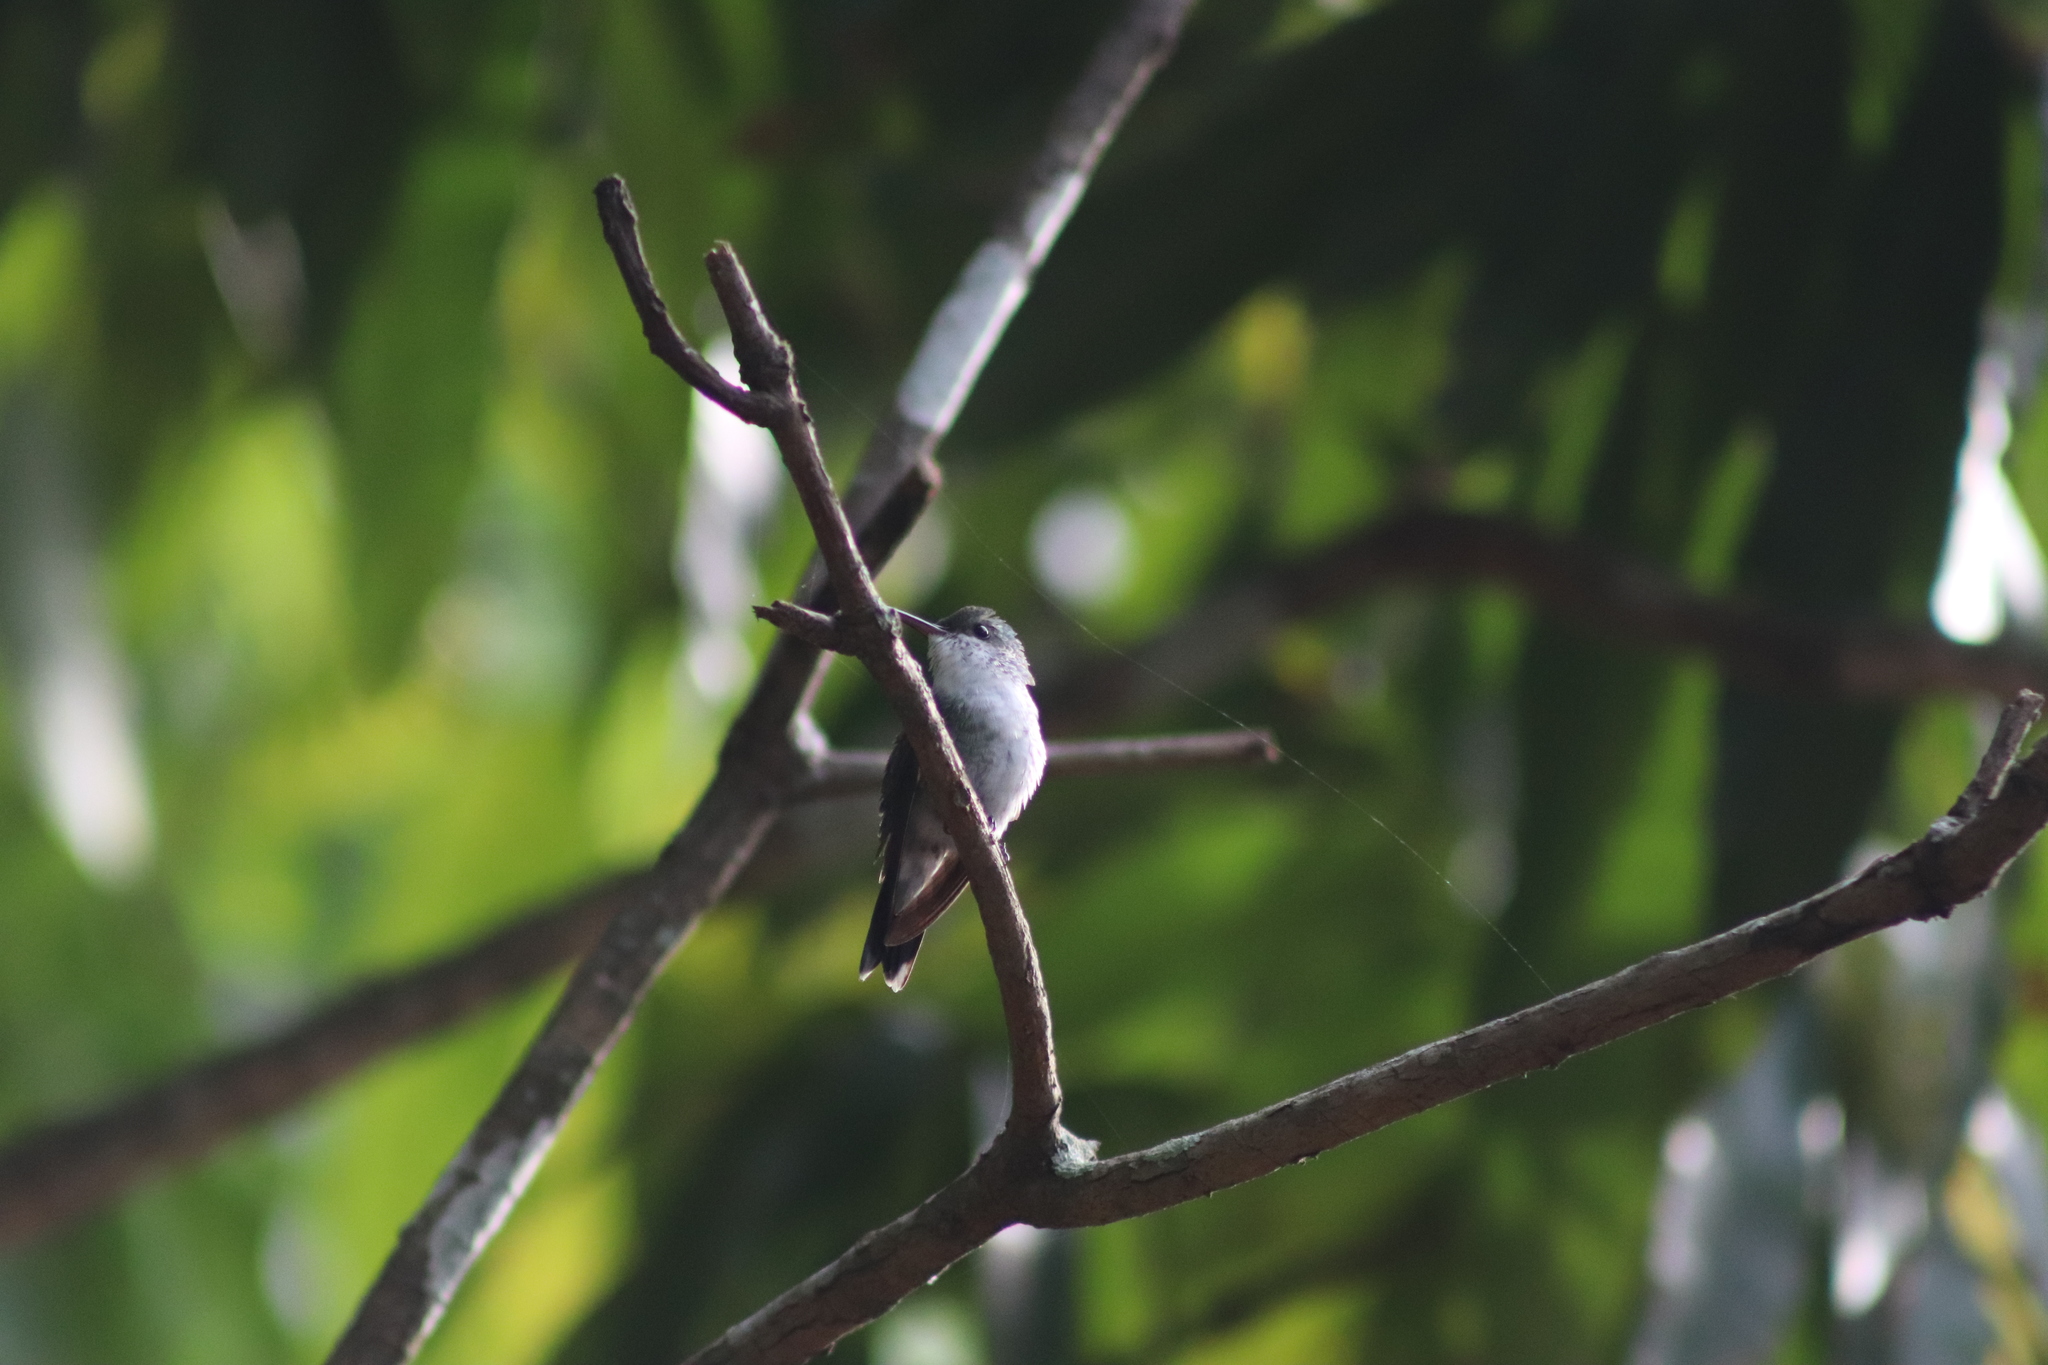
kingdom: Animalia
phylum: Chordata
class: Aves
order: Apodiformes
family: Trochilidae
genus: Chrysuronia
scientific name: Chrysuronia coeruleogularis
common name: Sapphire-throated hummingbird
